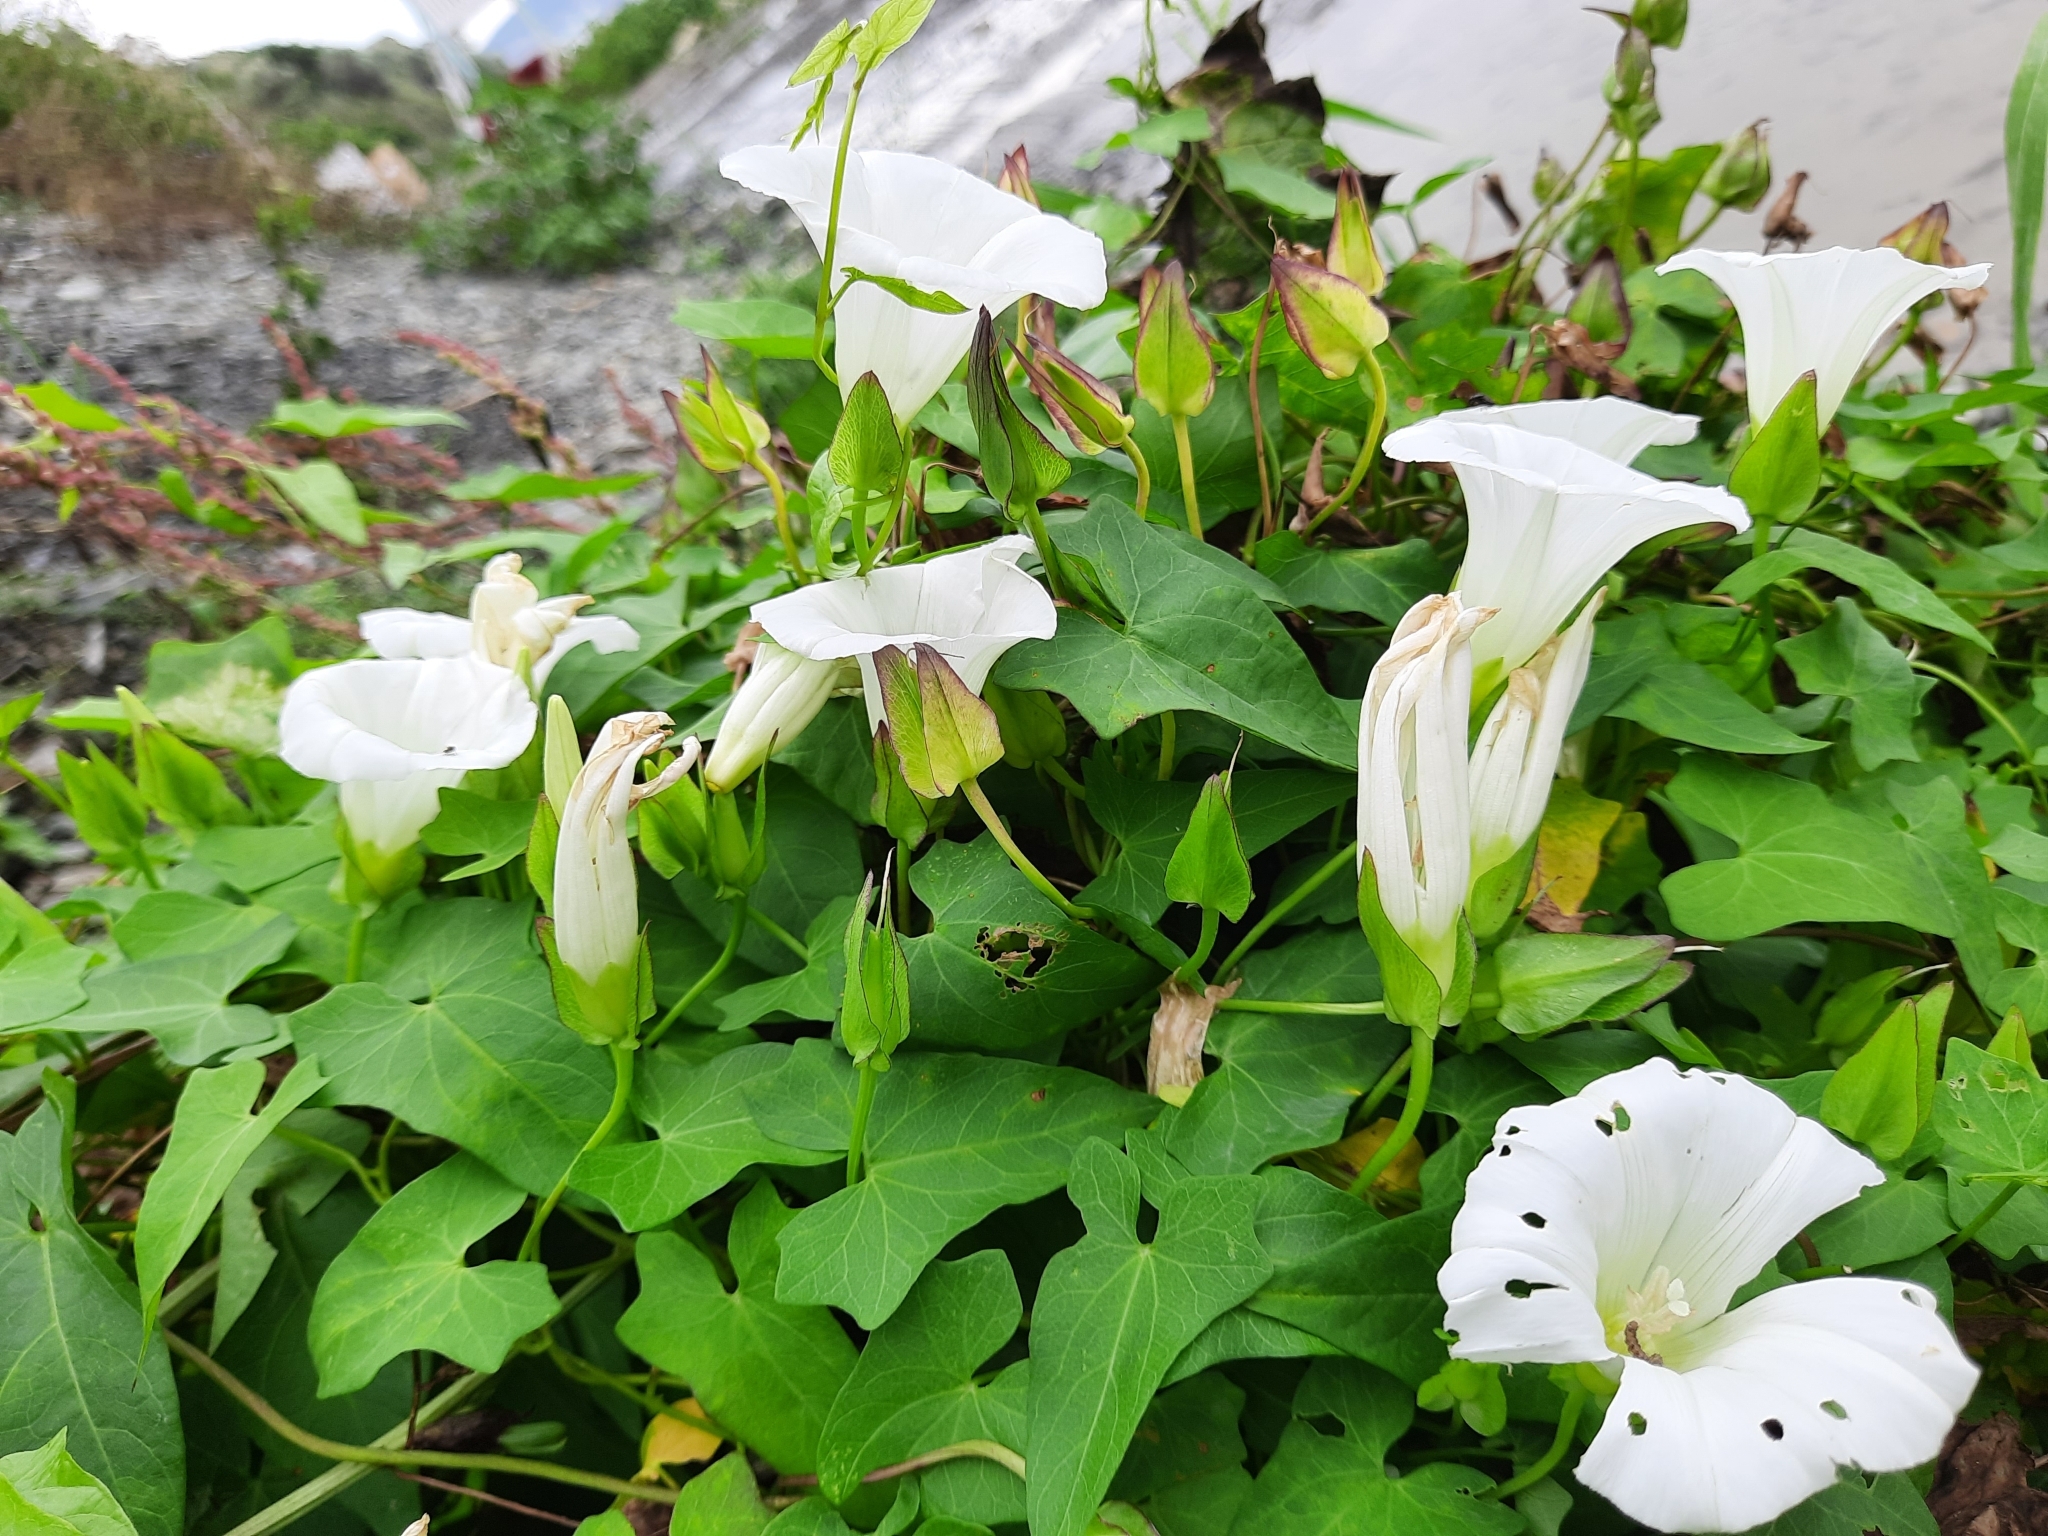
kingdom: Plantae
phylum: Tracheophyta
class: Magnoliopsida
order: Solanales
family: Convolvulaceae
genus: Calystegia
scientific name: Calystegia sepium
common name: Hedge bindweed
